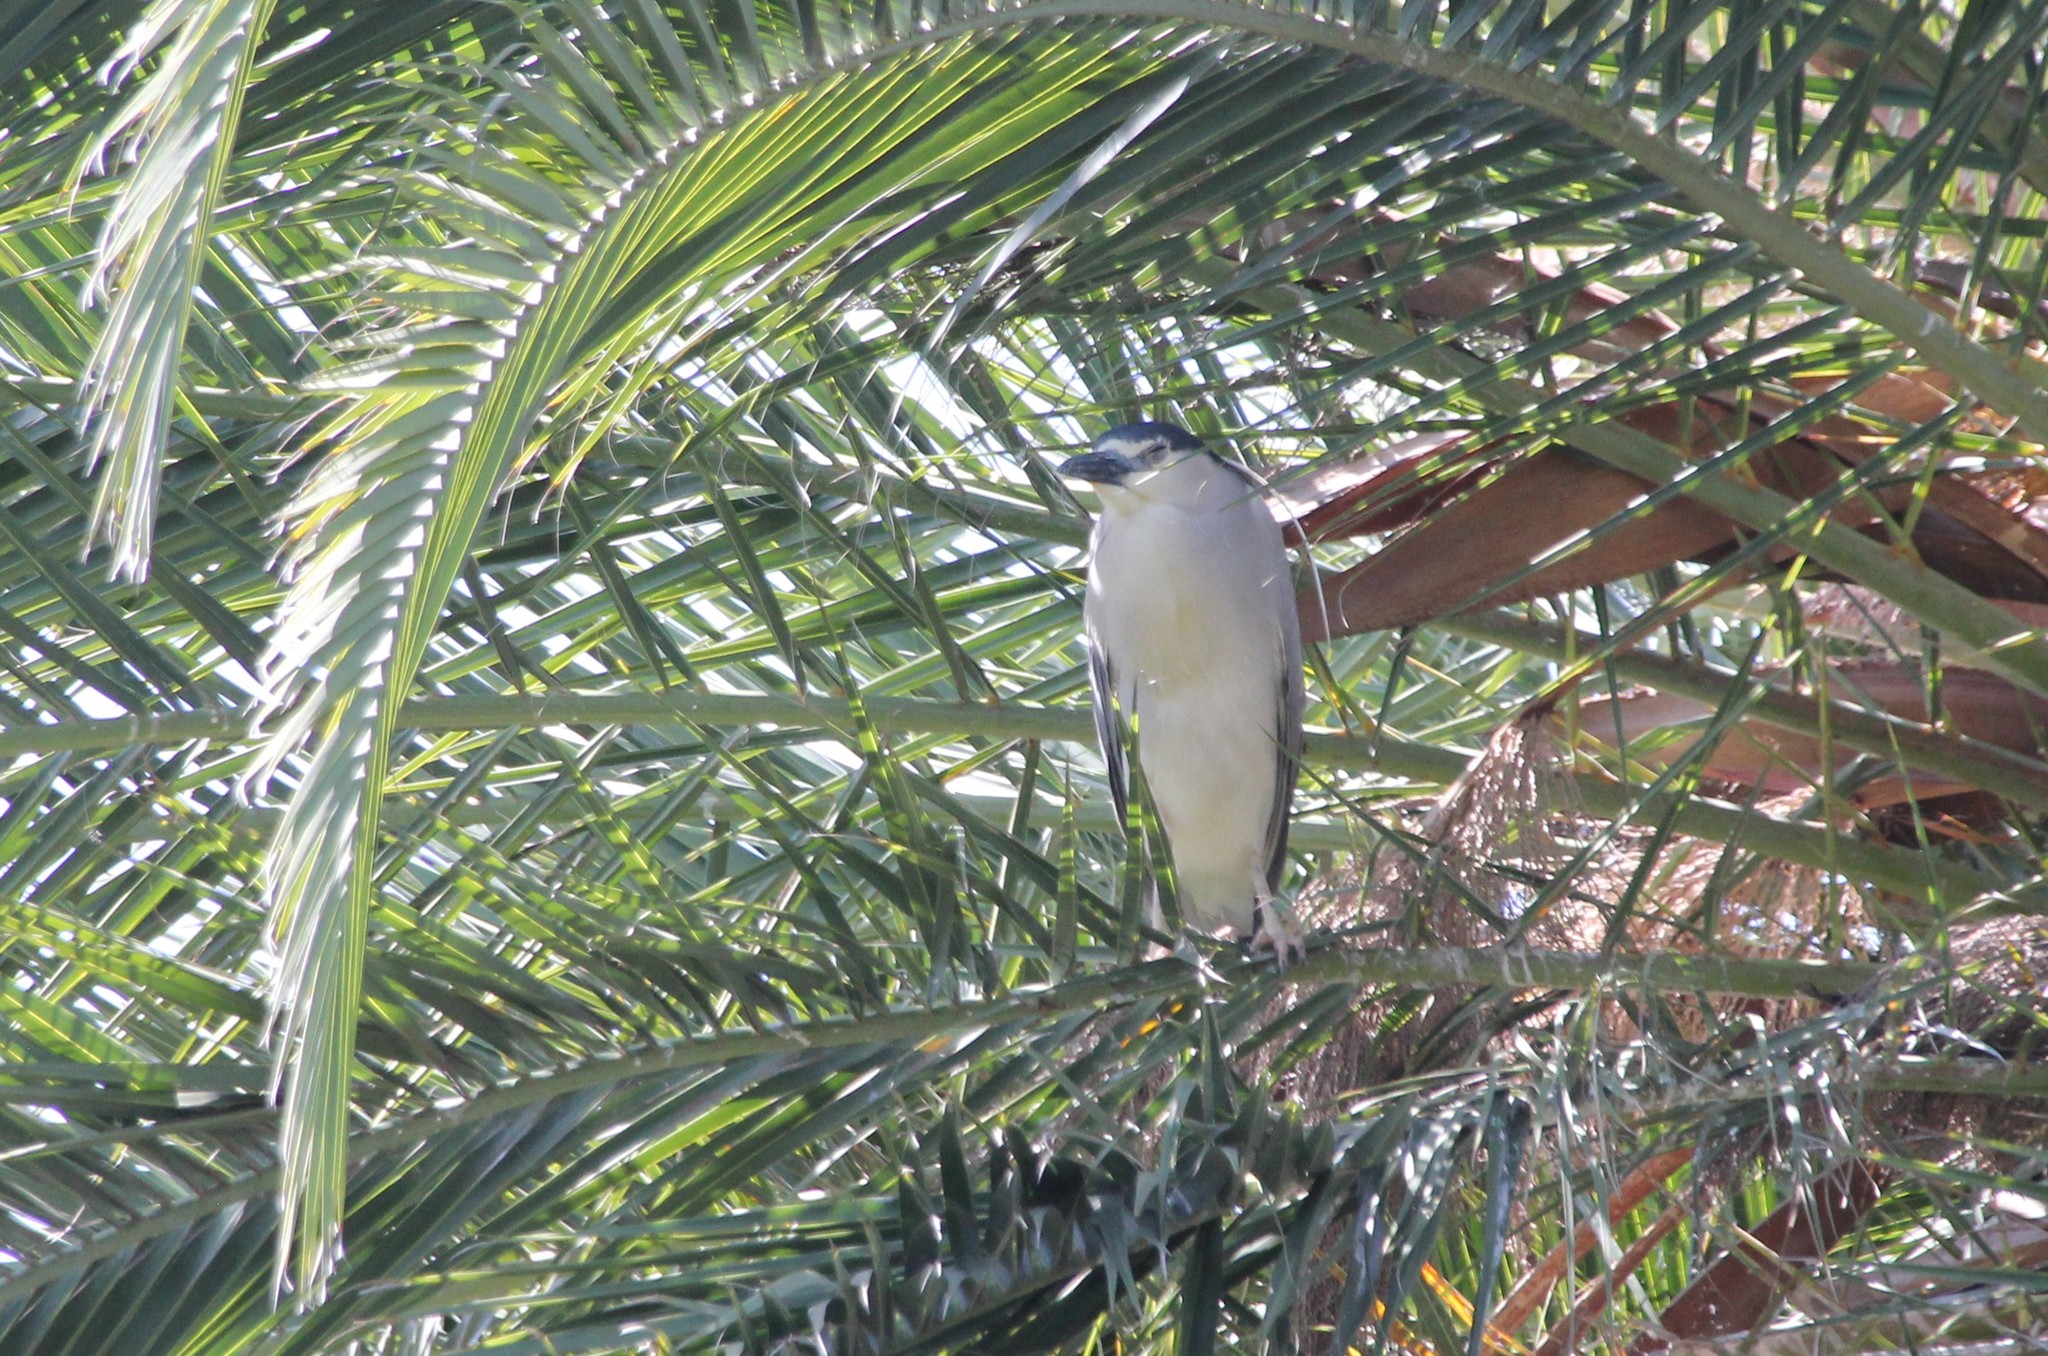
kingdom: Animalia
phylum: Chordata
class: Aves
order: Pelecaniformes
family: Ardeidae
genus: Nycticorax
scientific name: Nycticorax nycticorax
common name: Black-crowned night heron
